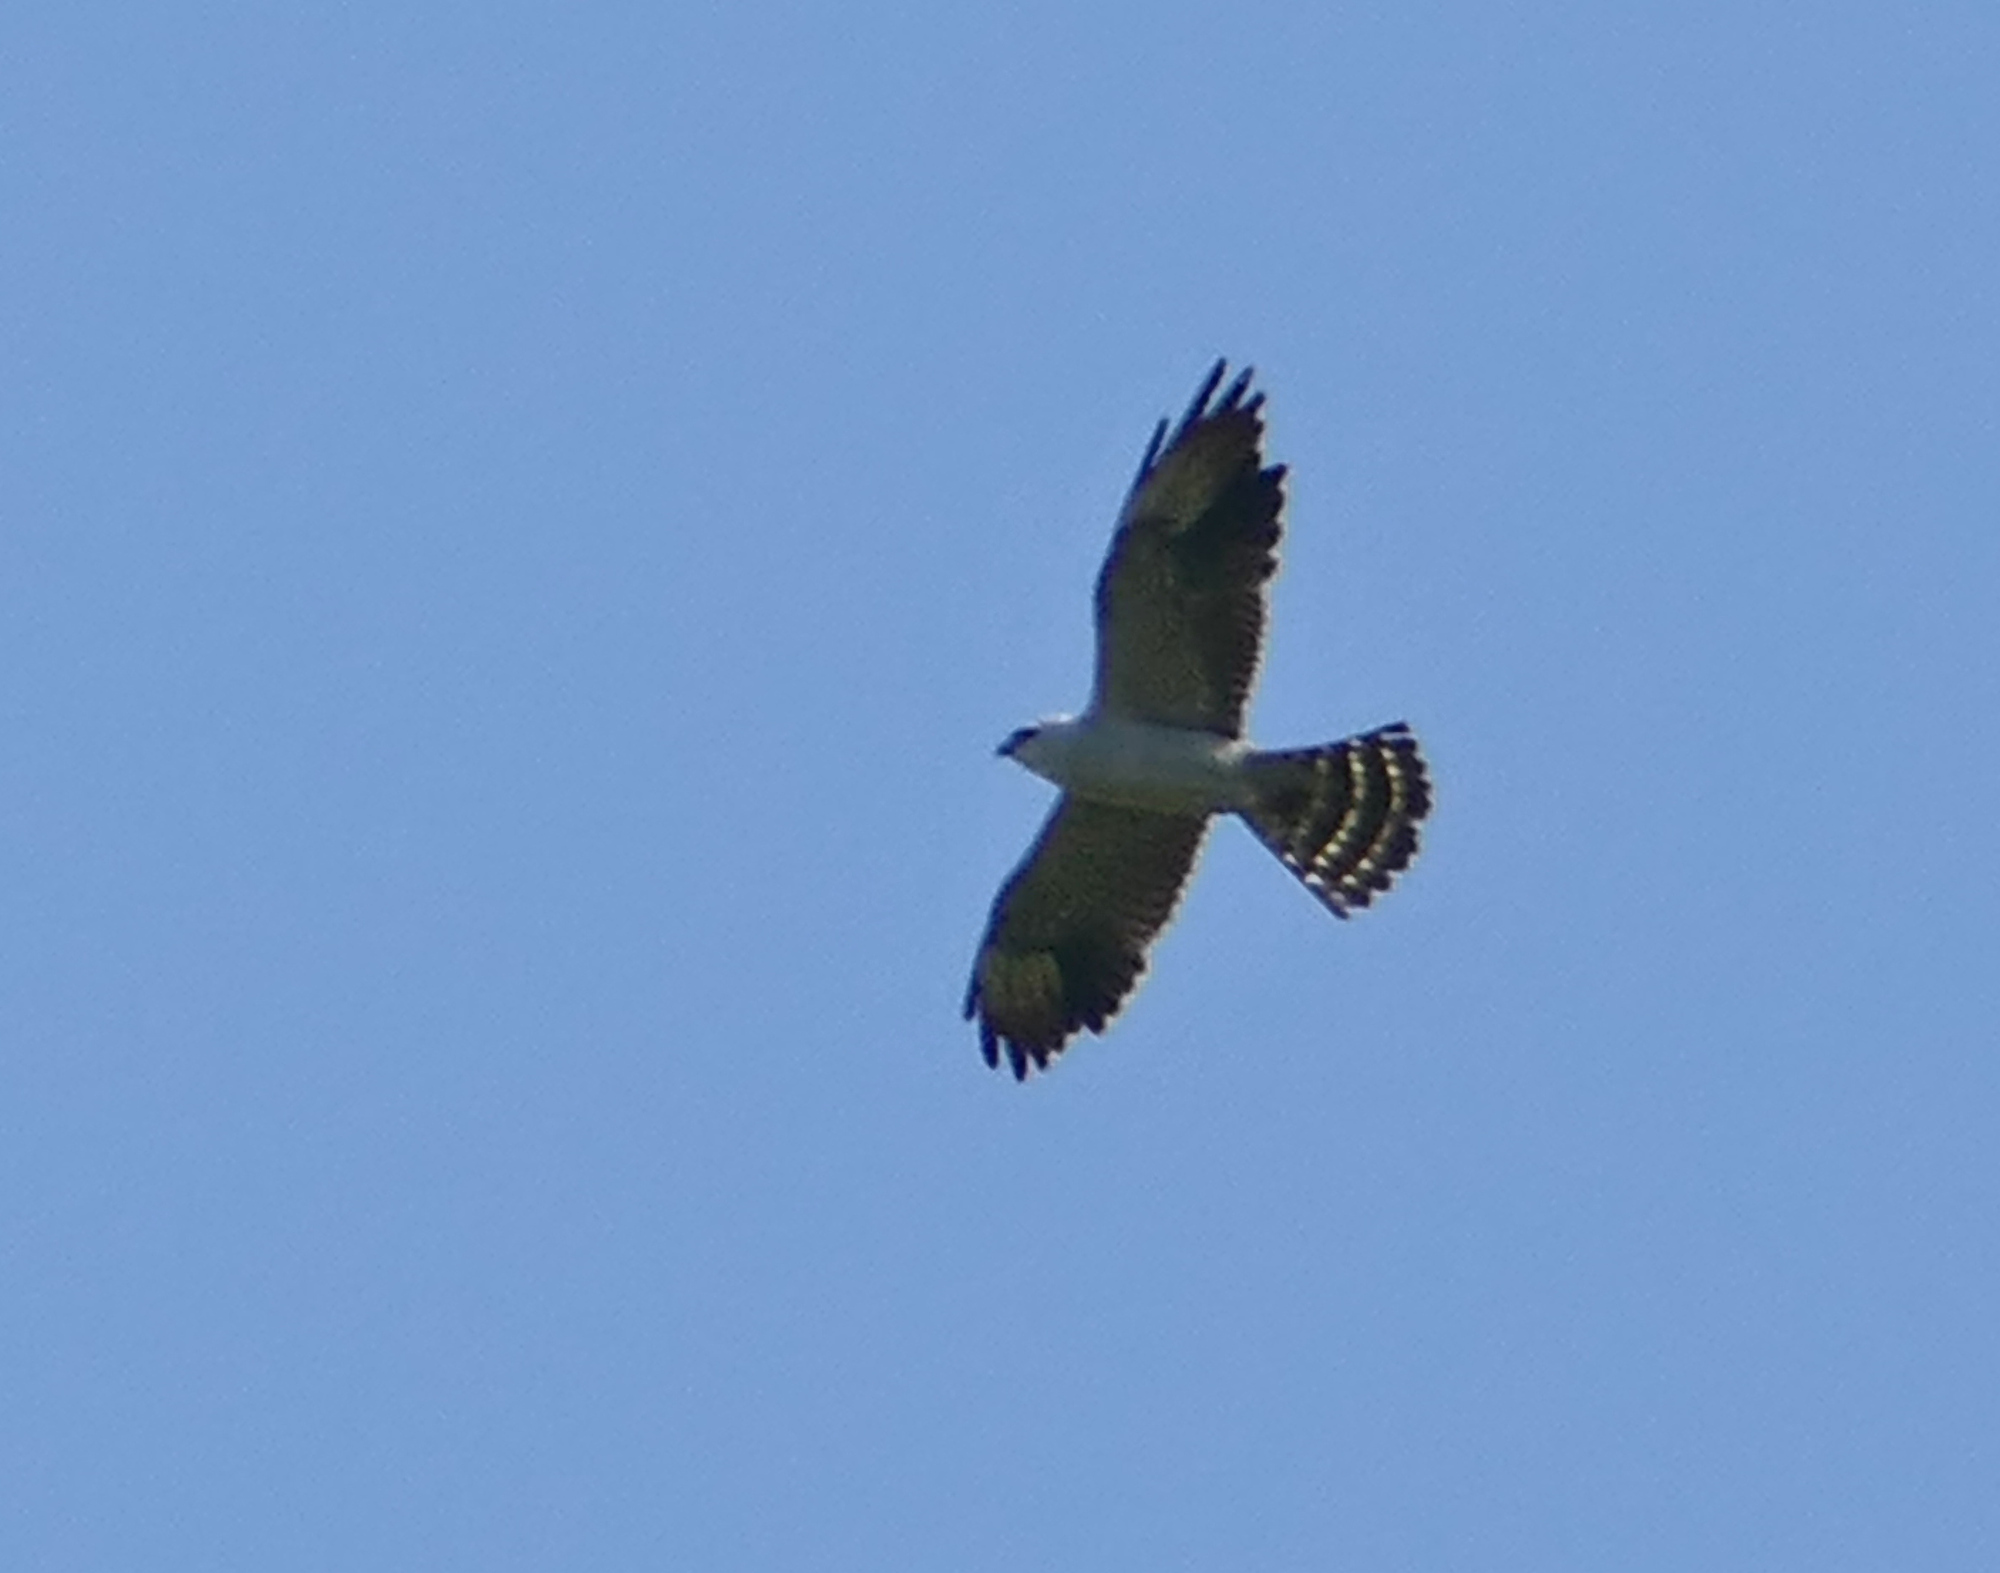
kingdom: Animalia
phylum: Chordata
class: Aves
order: Accipitriformes
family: Accipitridae
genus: Ictinia
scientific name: Ictinia mississippiensis
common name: Mississippi kite
